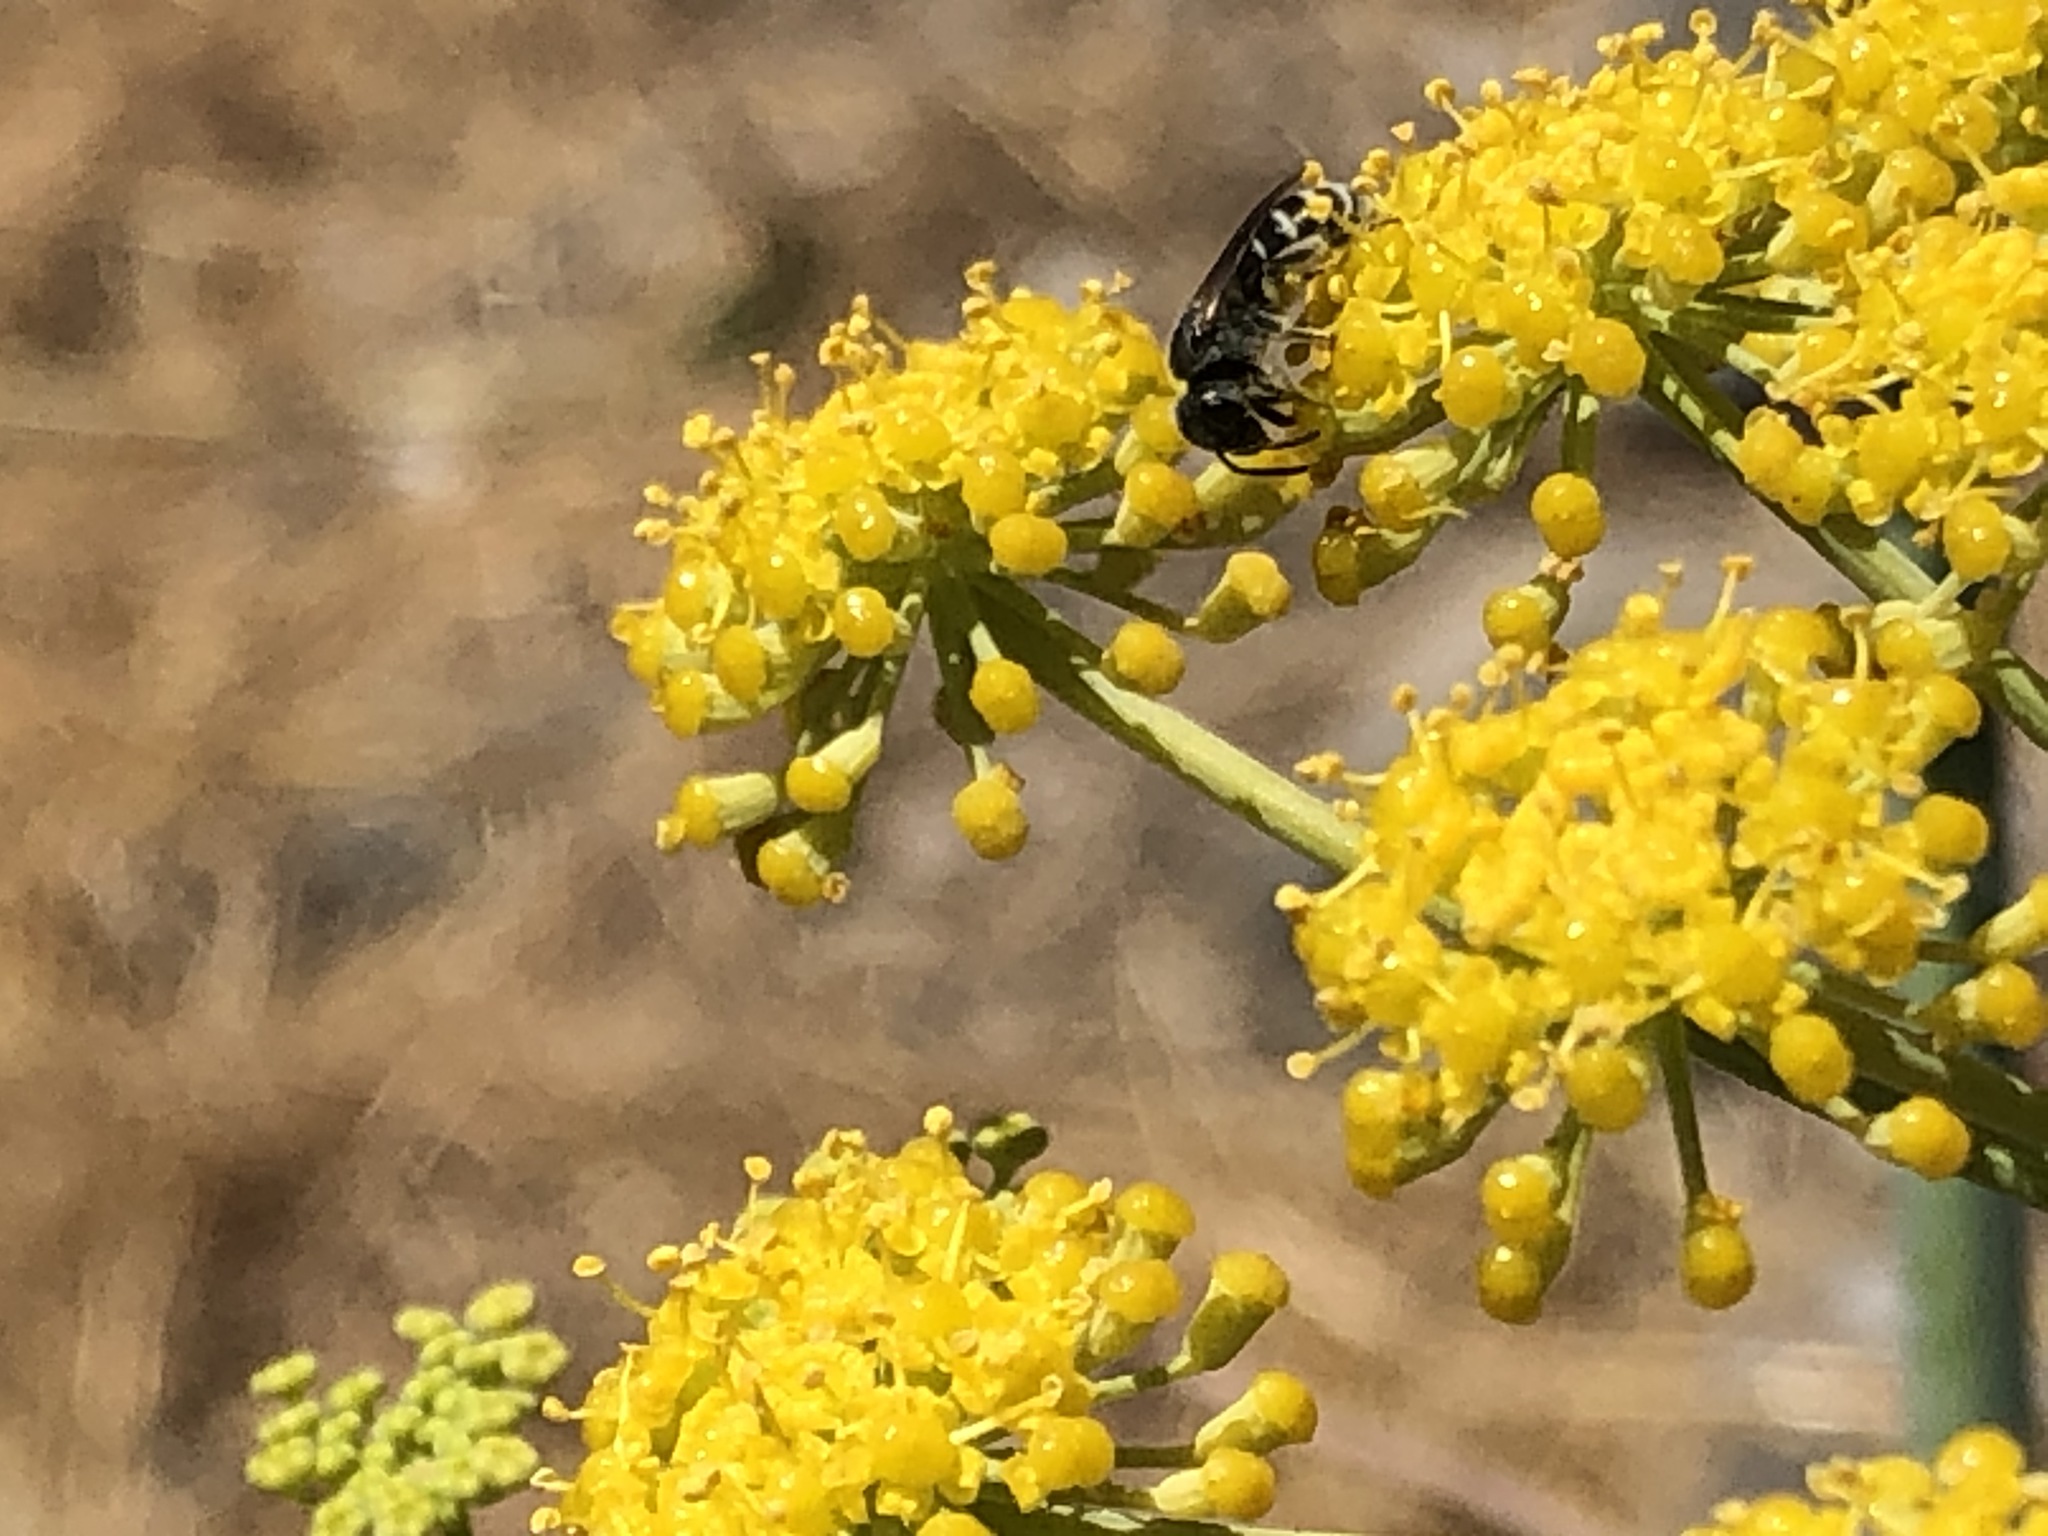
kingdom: Animalia
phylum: Arthropoda
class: Insecta
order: Hymenoptera
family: Halictidae
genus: Halictus
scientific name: Halictus tripartitus
